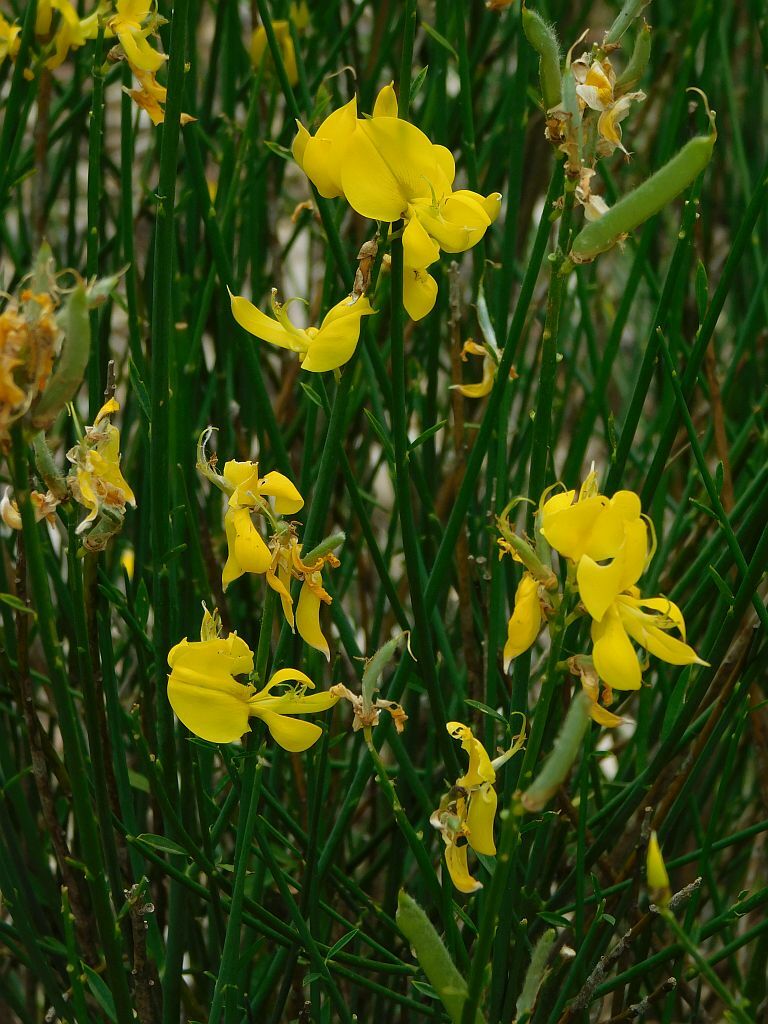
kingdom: Plantae
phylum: Tracheophyta
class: Magnoliopsida
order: Fabales
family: Fabaceae
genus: Spartium
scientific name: Spartium junceum
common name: Spanish broom
